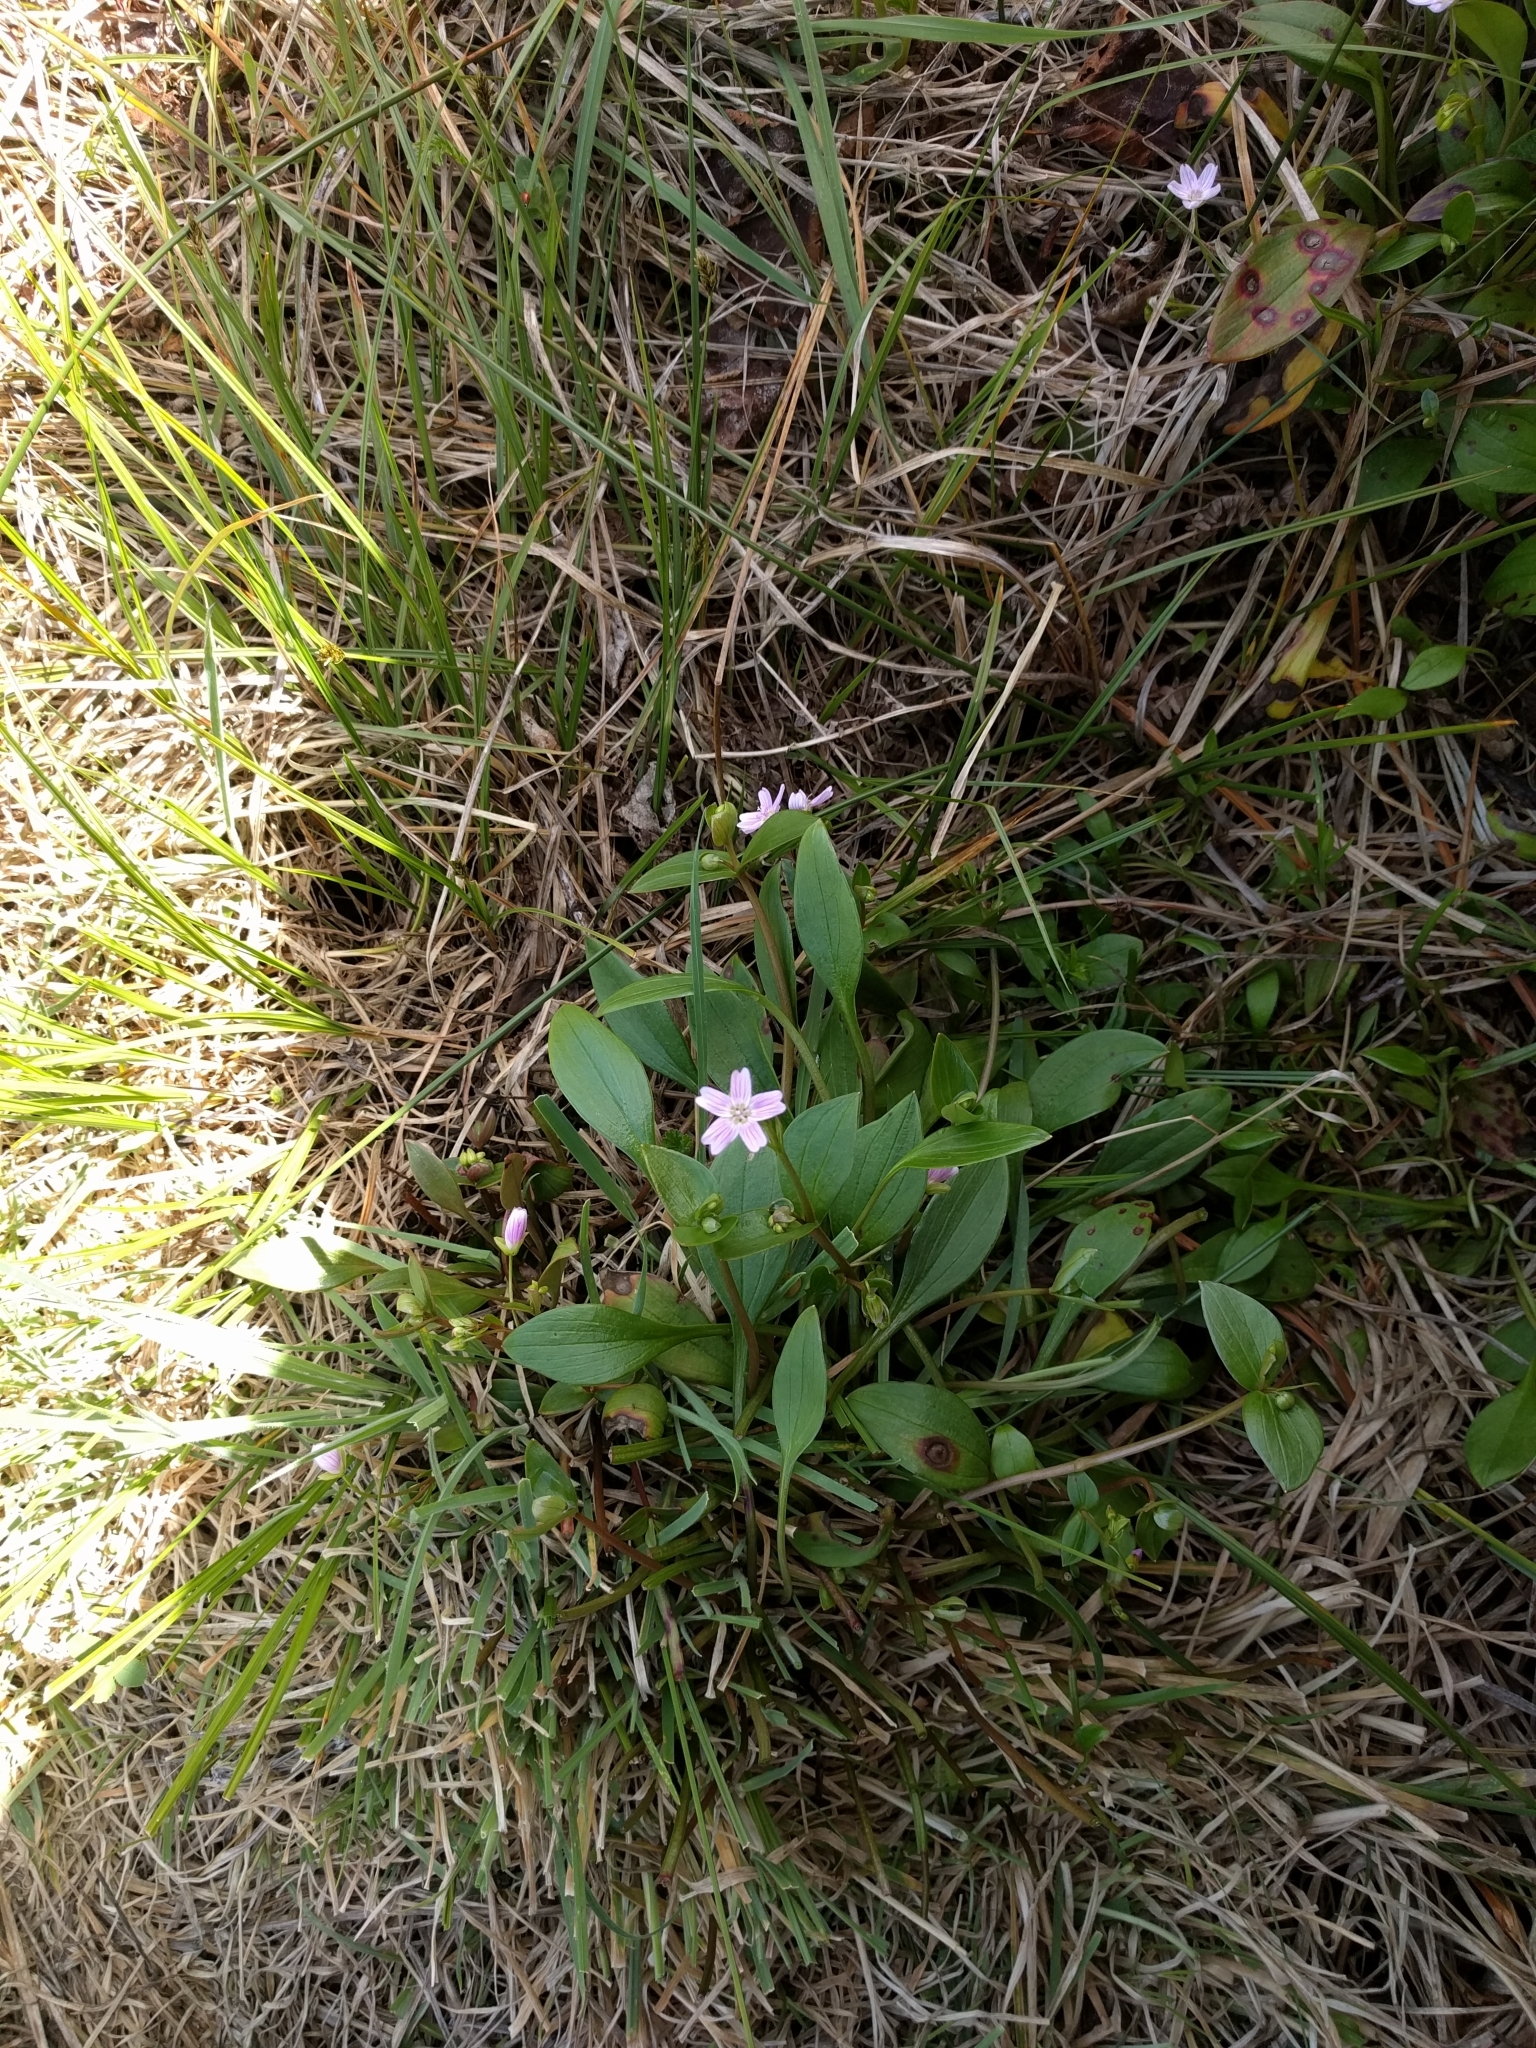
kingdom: Plantae
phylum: Tracheophyta
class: Magnoliopsida
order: Caryophyllales
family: Montiaceae
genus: Claytonia
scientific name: Claytonia sibirica
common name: Pink purslane
